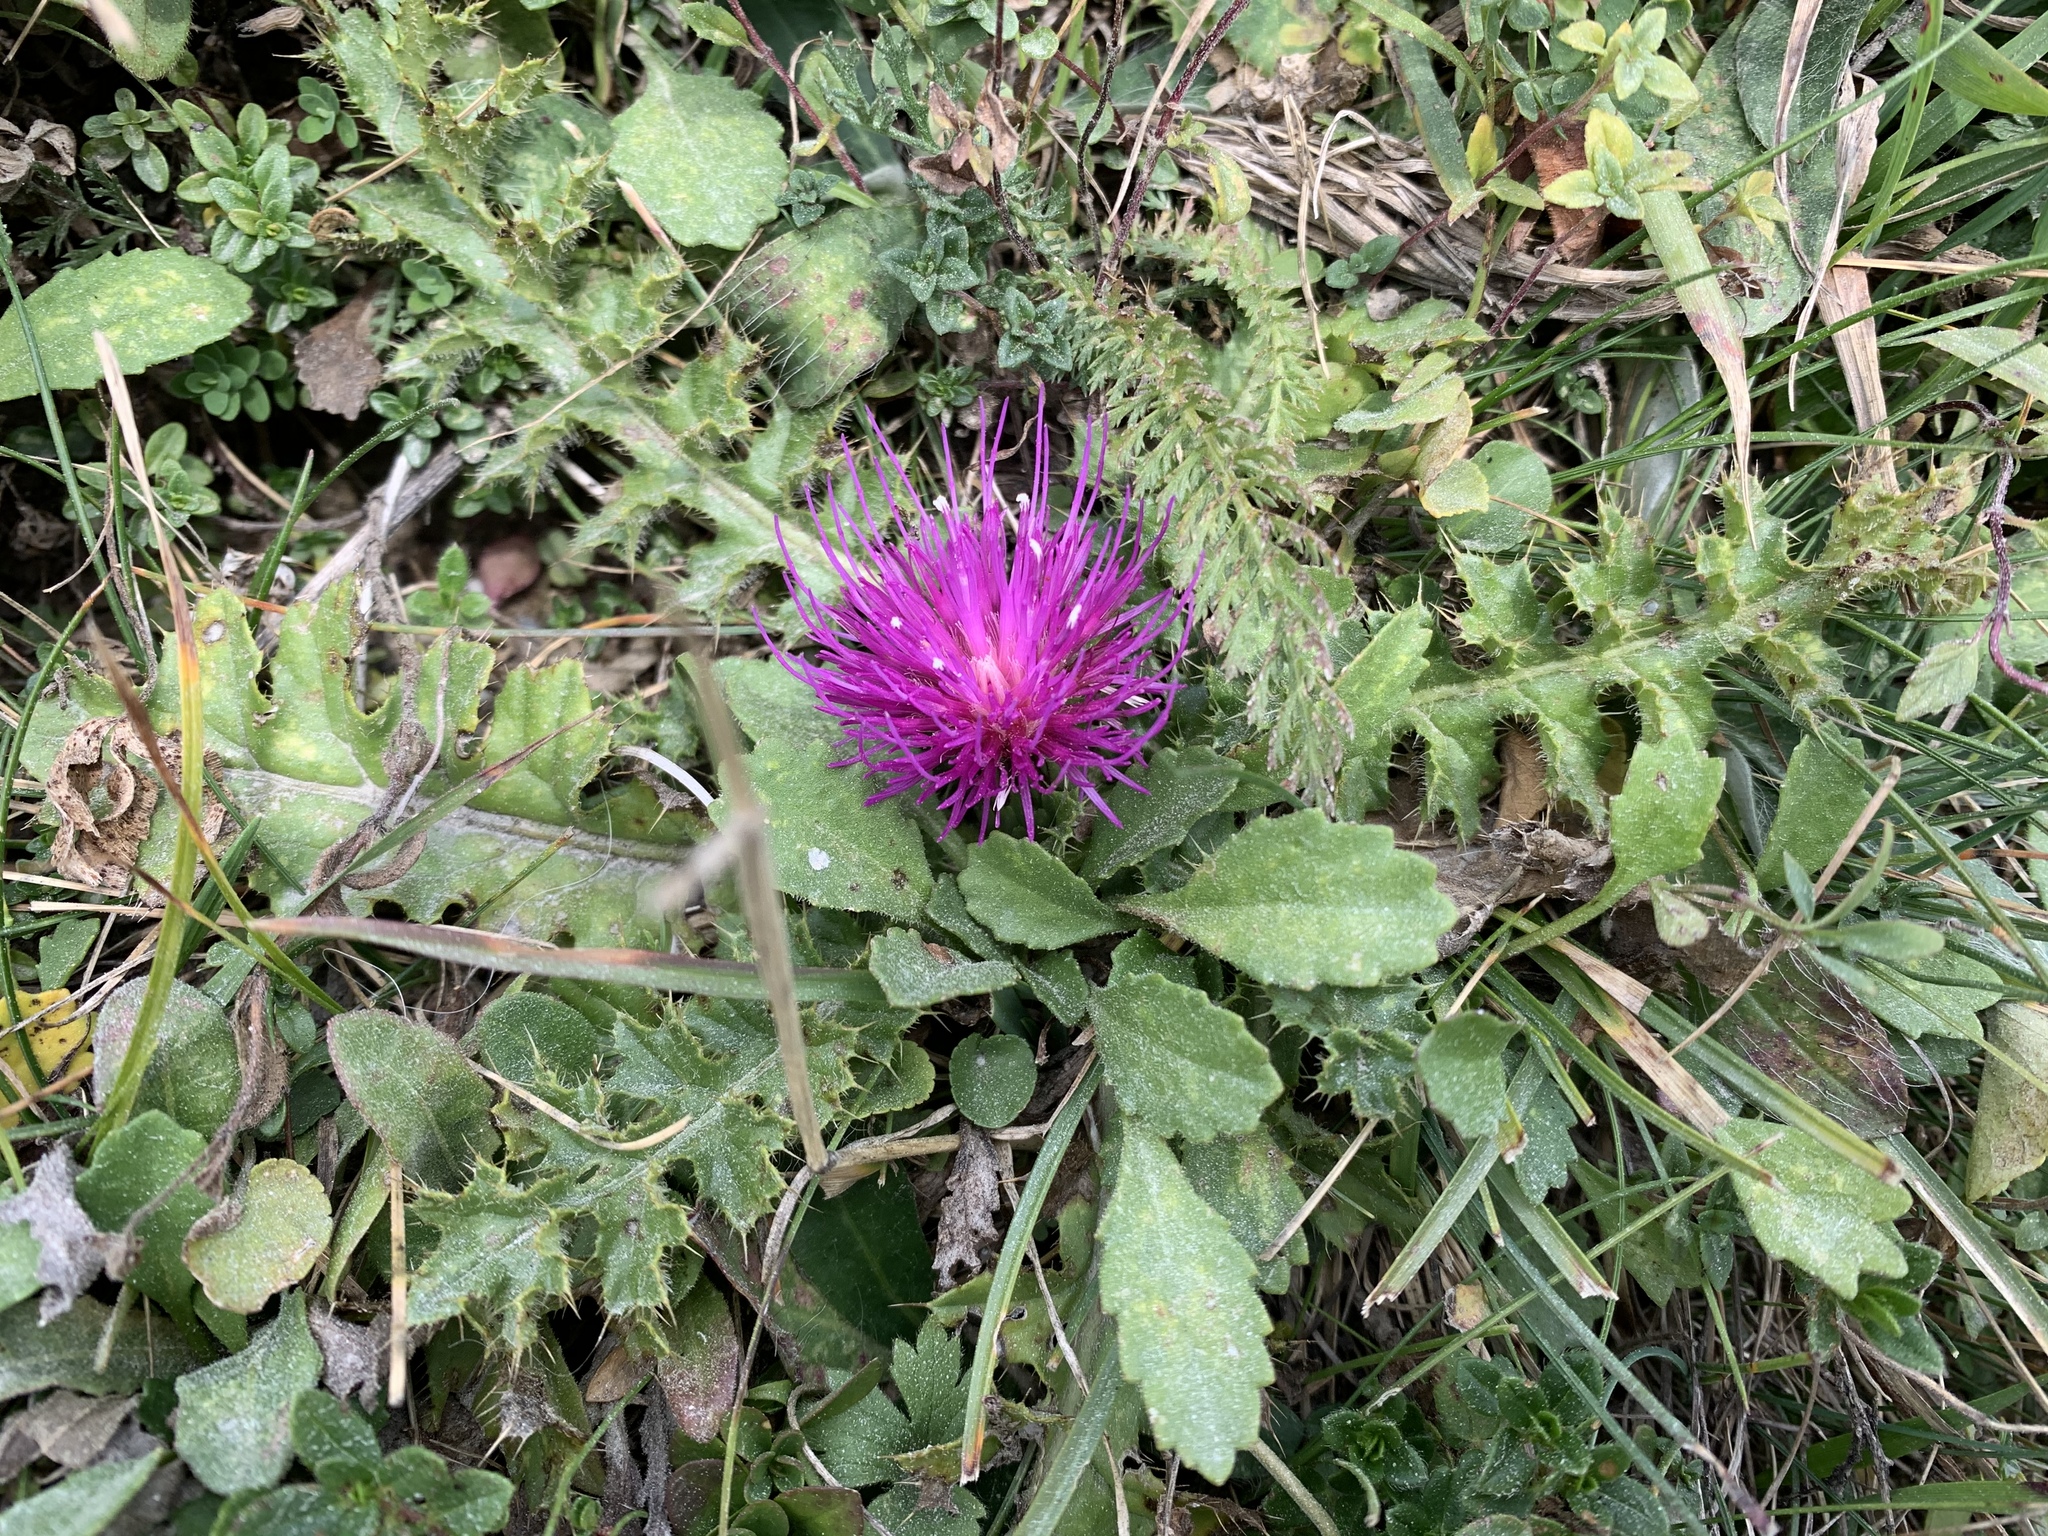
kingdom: Plantae
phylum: Tracheophyta
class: Magnoliopsida
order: Asterales
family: Asteraceae
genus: Cirsium
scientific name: Cirsium acaulon
